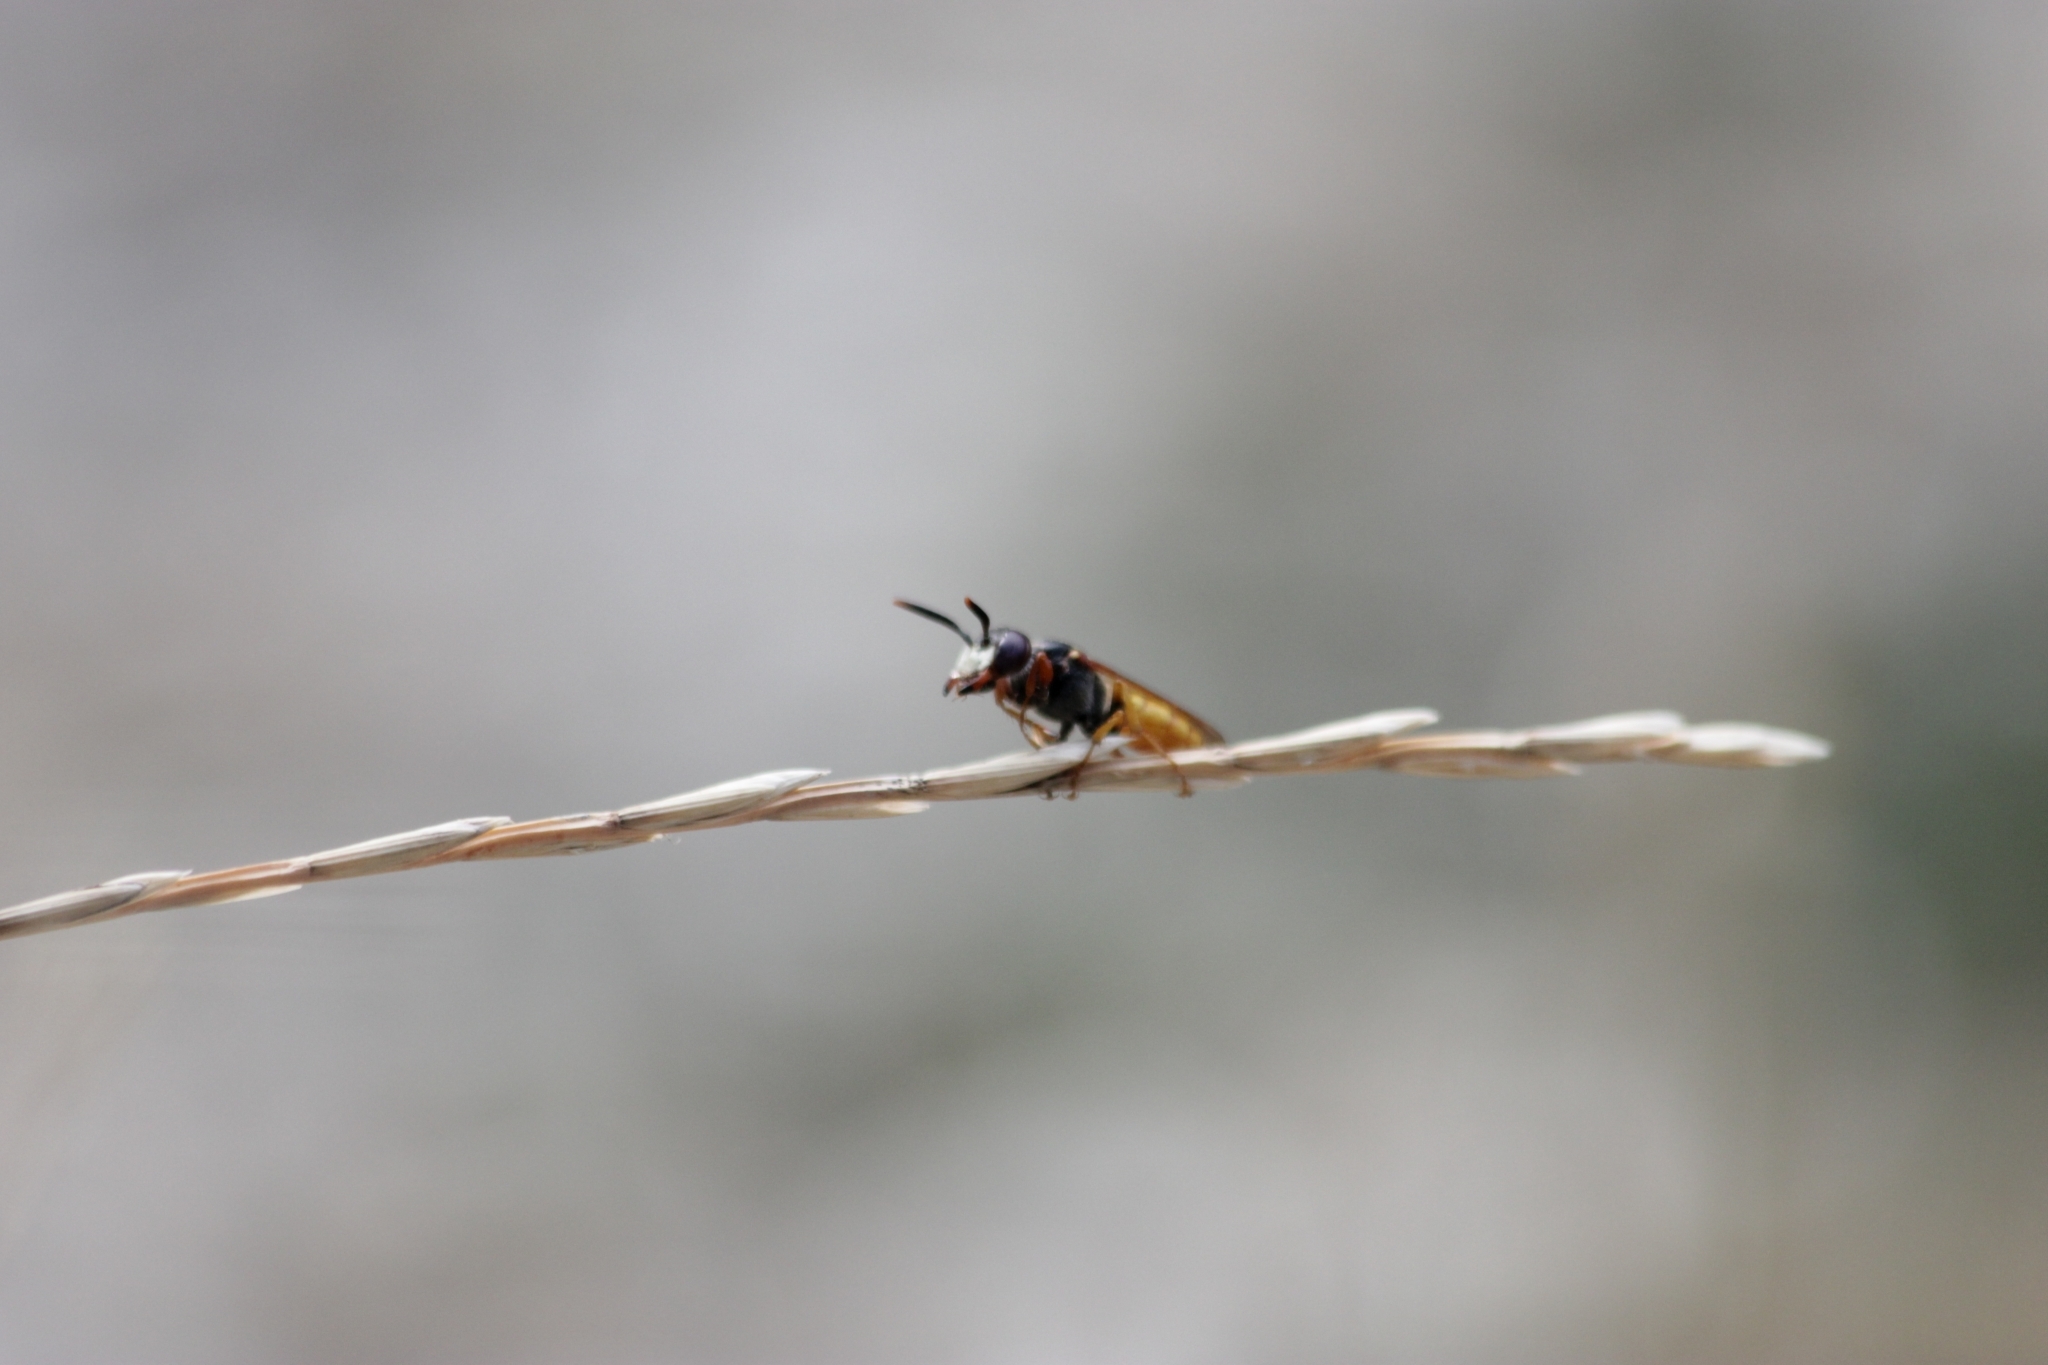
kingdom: Animalia
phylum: Arthropoda
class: Insecta
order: Hymenoptera
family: Crabronidae
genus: Philanthus
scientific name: Philanthus triangulum
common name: Bee wolf
